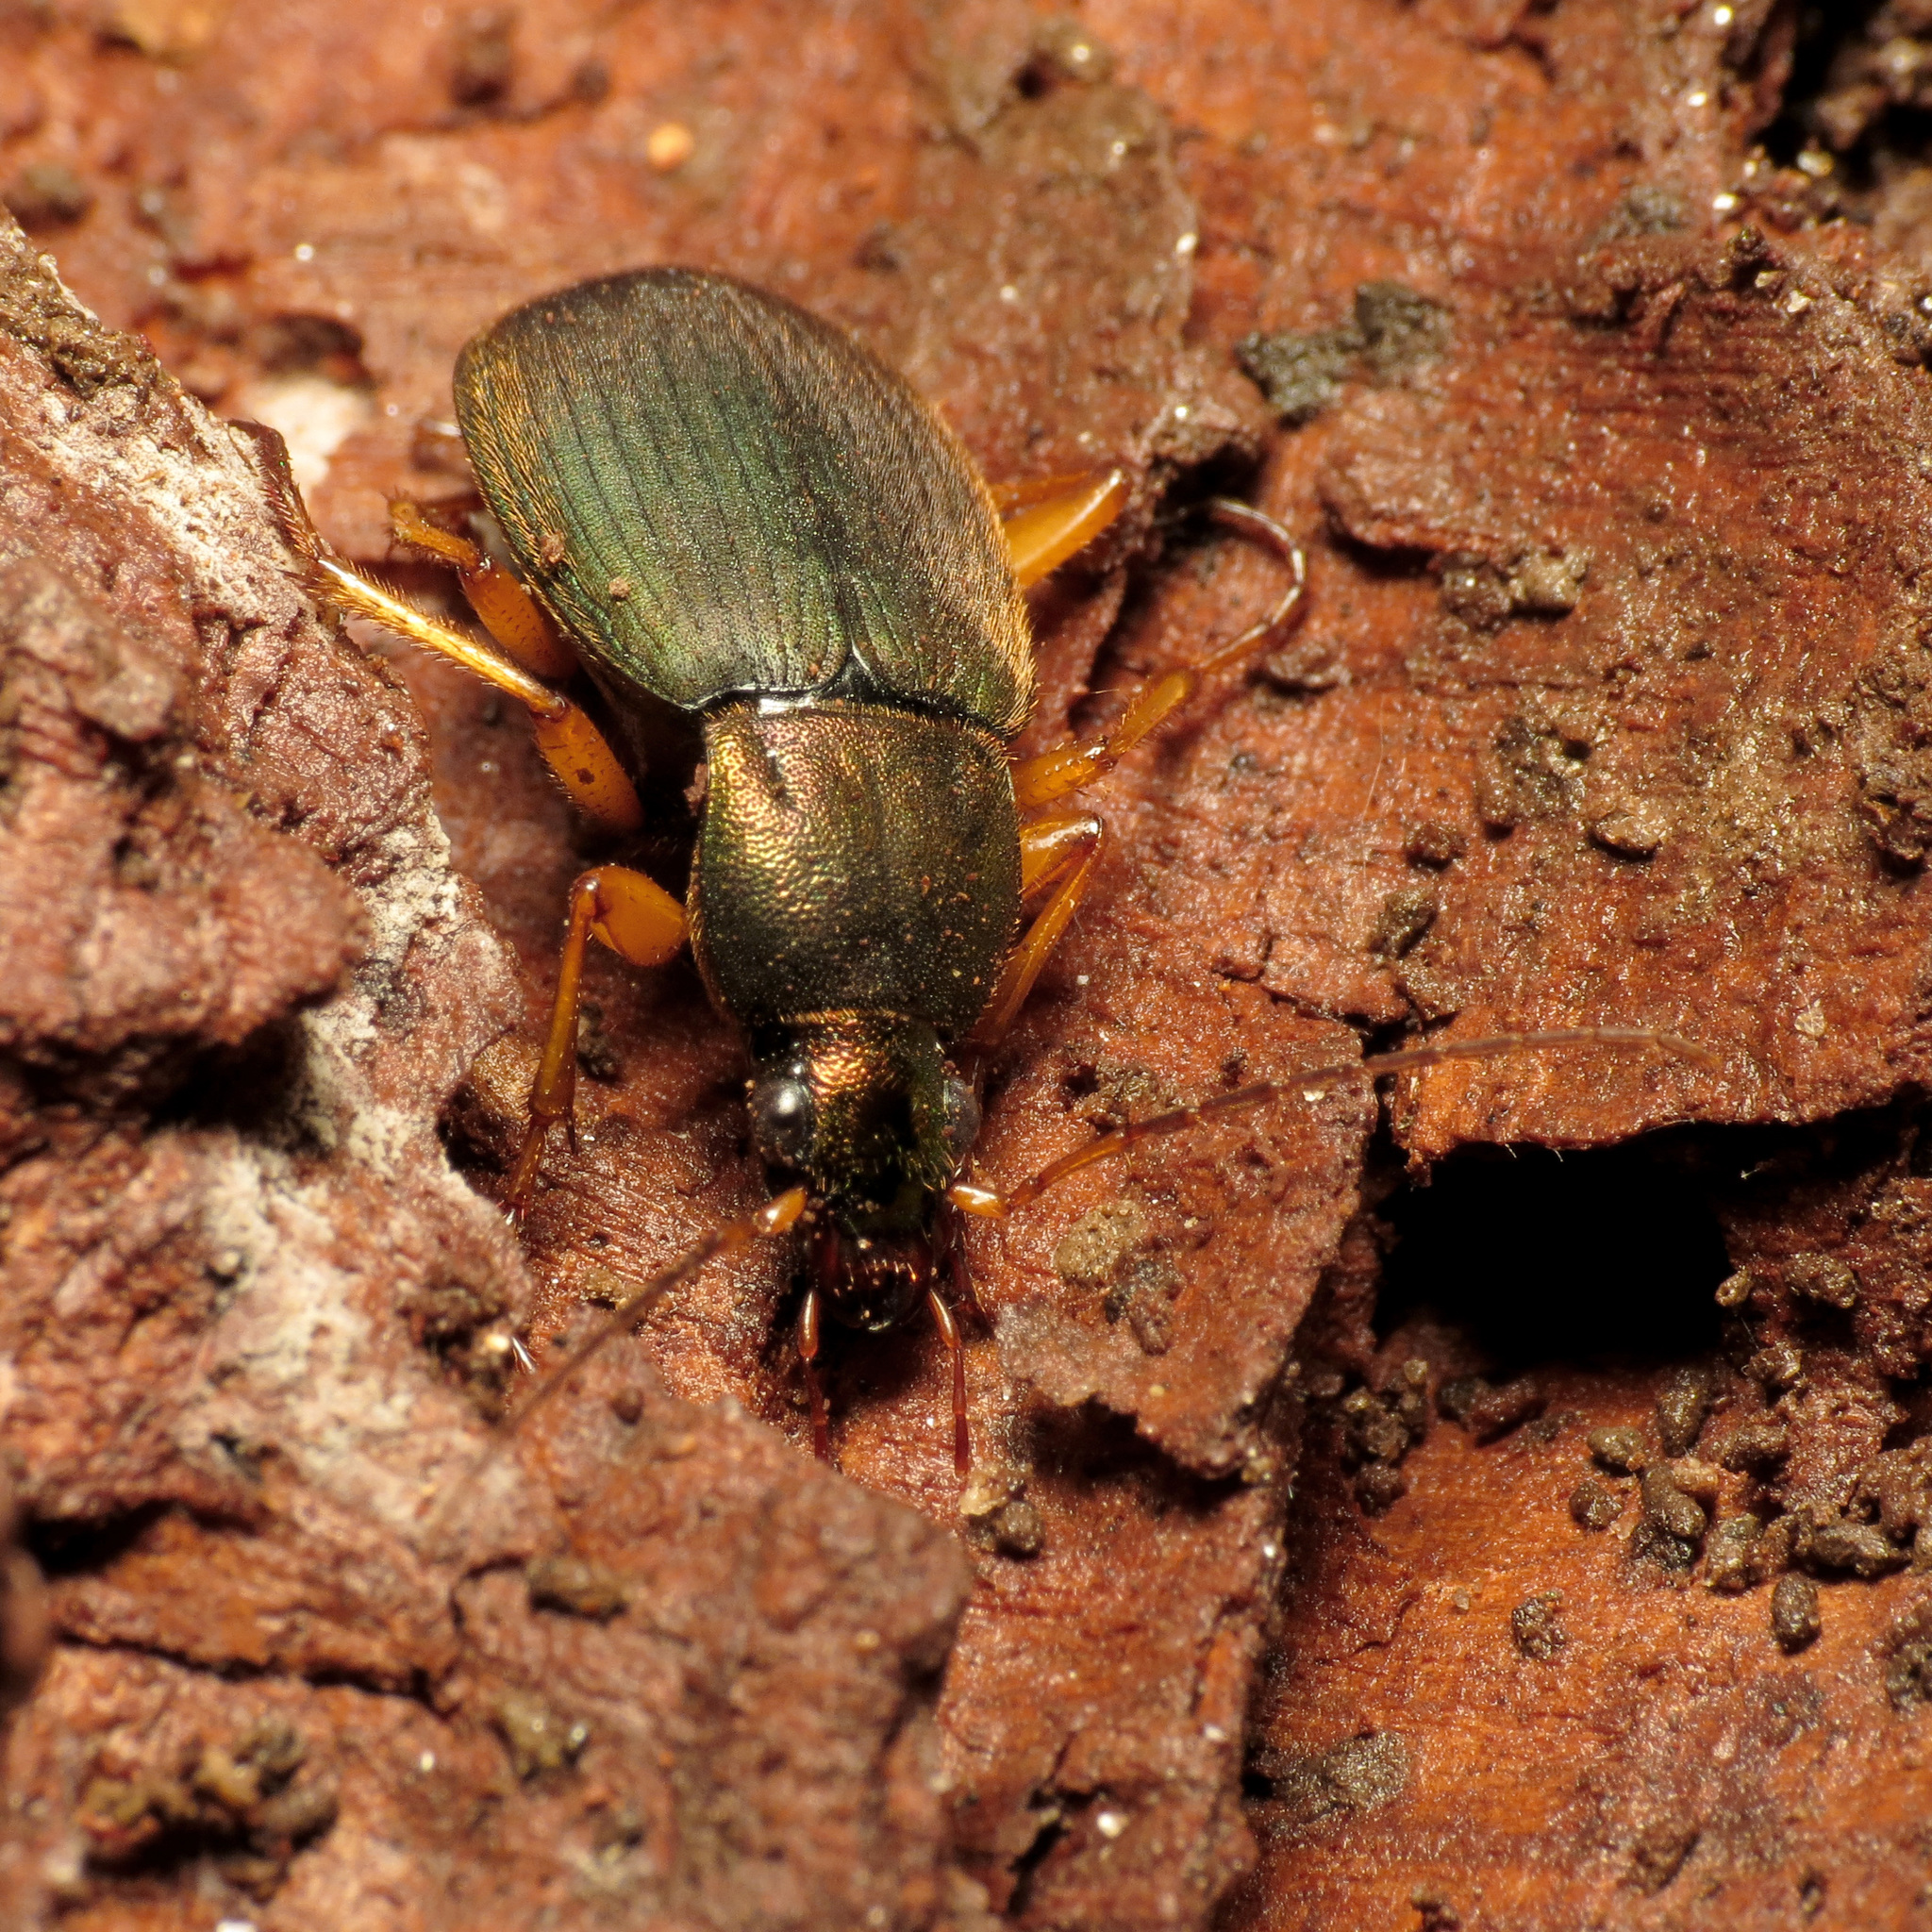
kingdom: Animalia
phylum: Arthropoda
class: Insecta
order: Coleoptera
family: Carabidae
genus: Chlaenius
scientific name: Chlaenius aestivus
